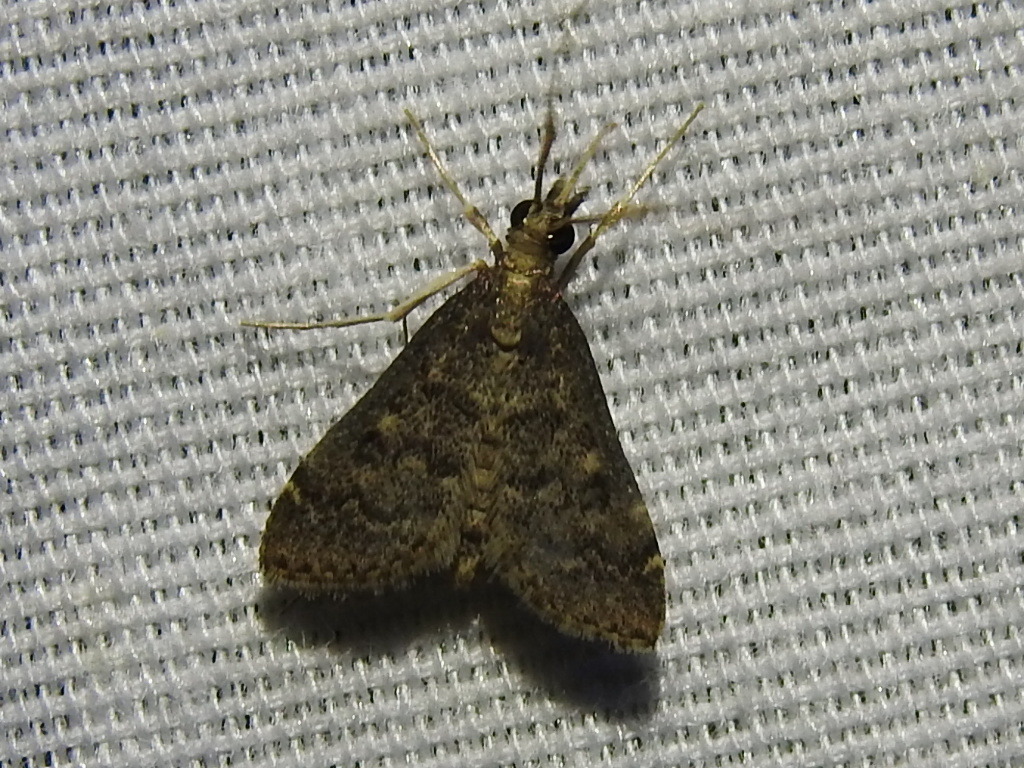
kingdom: Animalia
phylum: Arthropoda
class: Insecta
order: Lepidoptera
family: Crambidae
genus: Steniodes
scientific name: Steniodes declivalis
